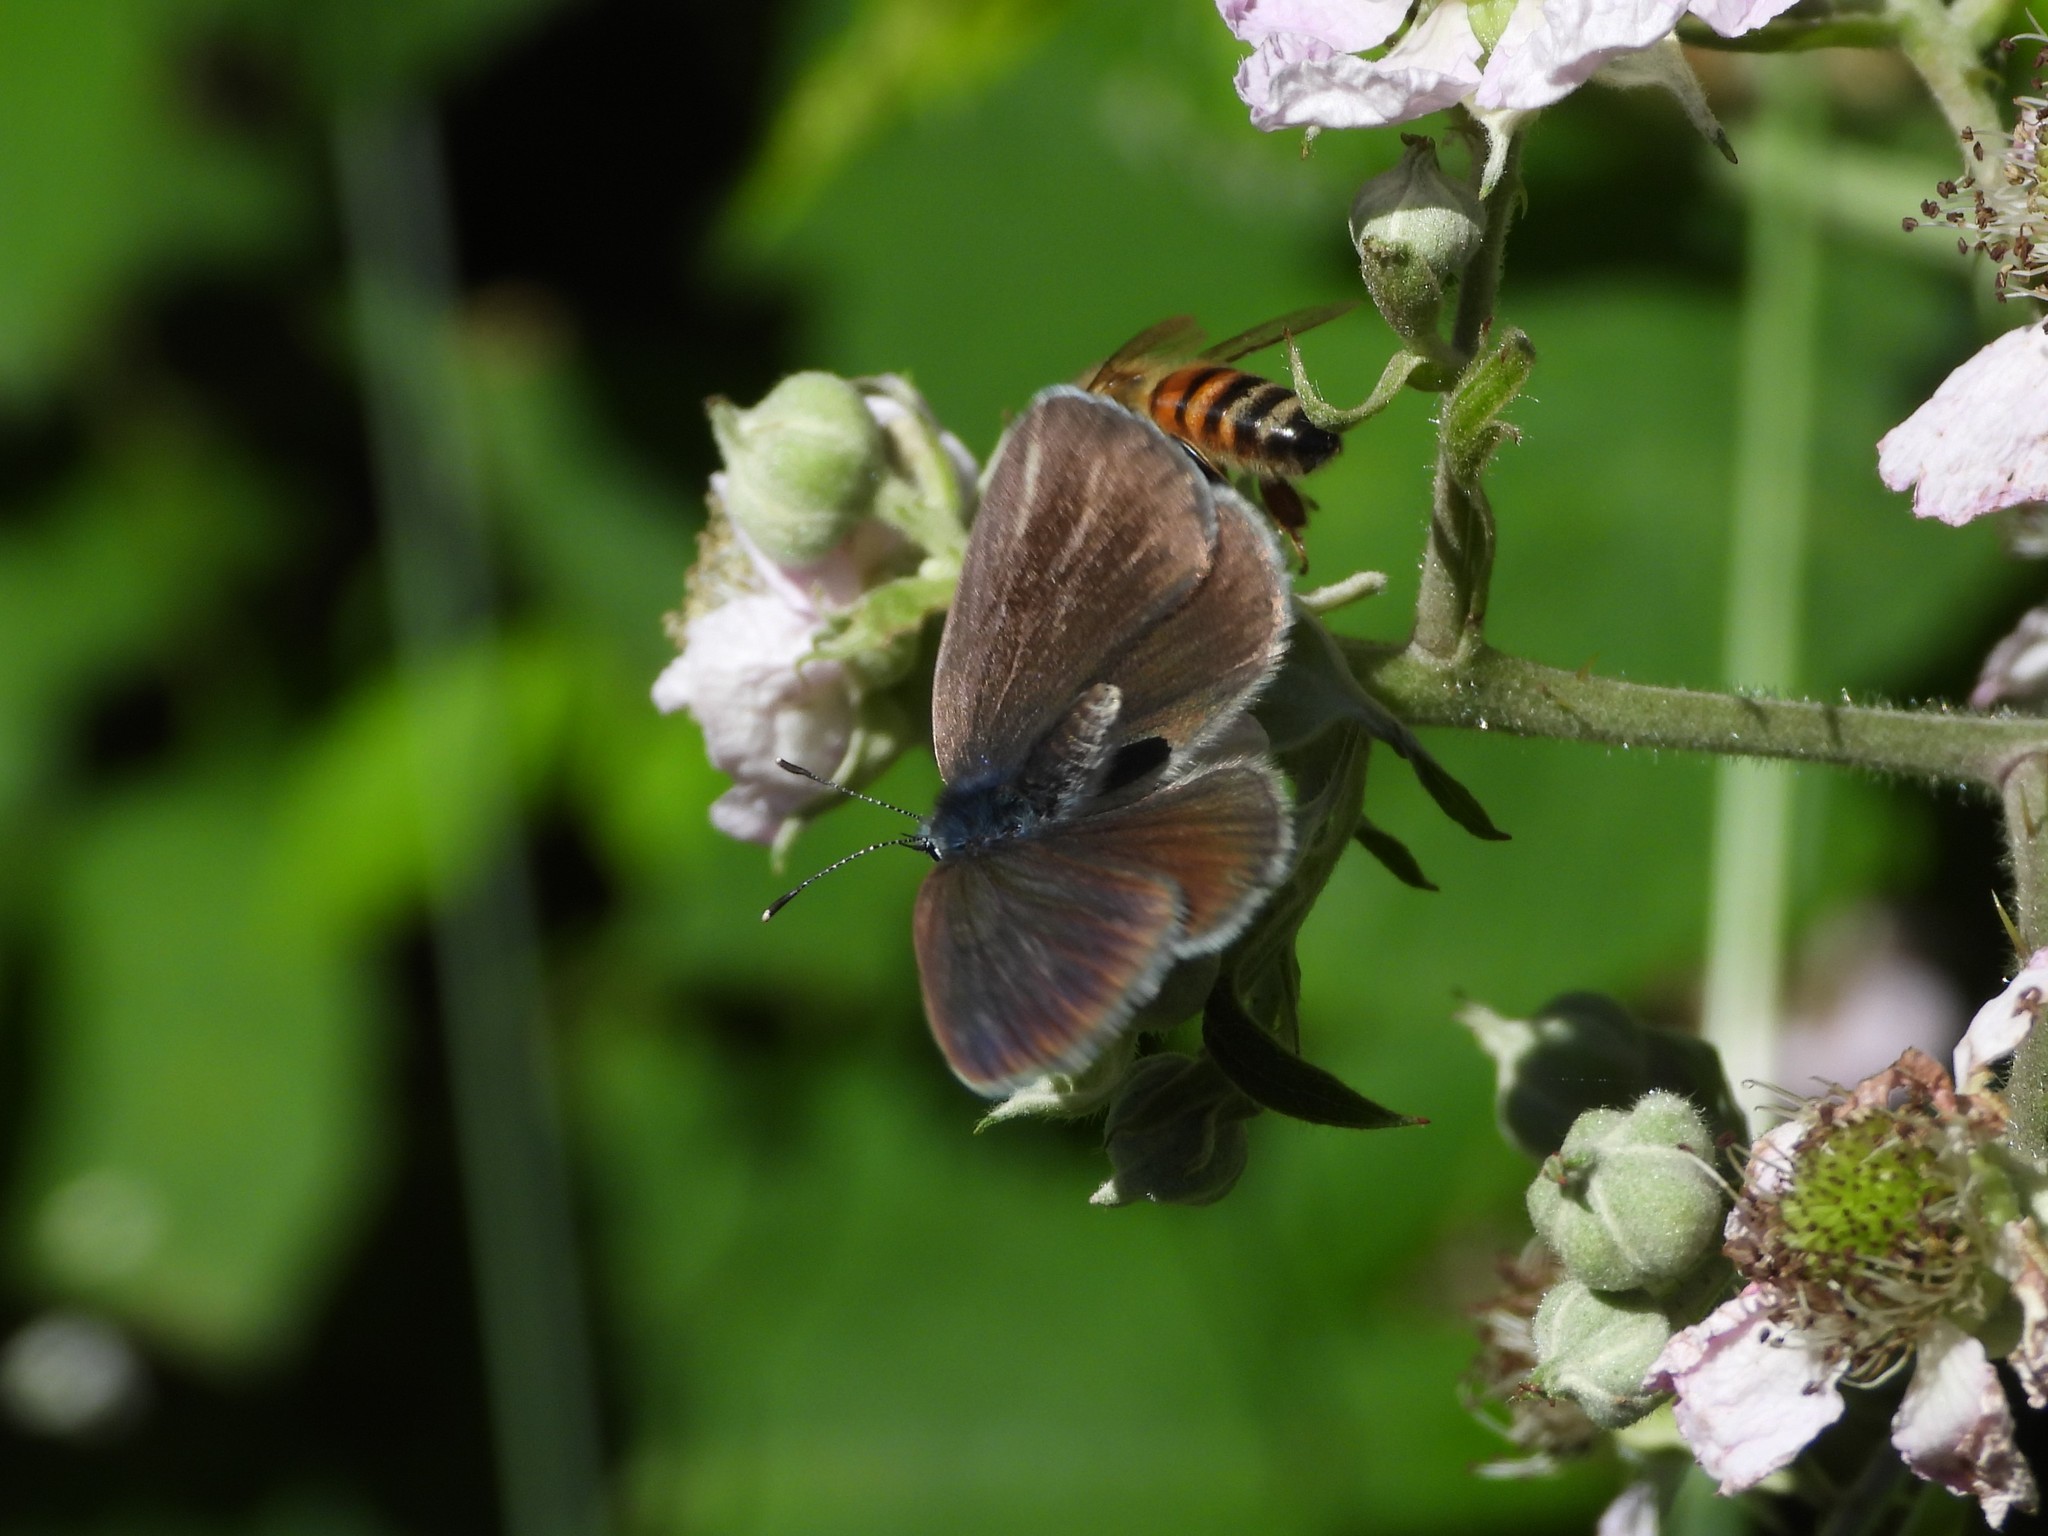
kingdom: Animalia
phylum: Arthropoda
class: Insecta
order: Lepidoptera
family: Lycaenidae
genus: Glaucopsyche
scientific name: Glaucopsyche alexis
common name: Green-underside blue
